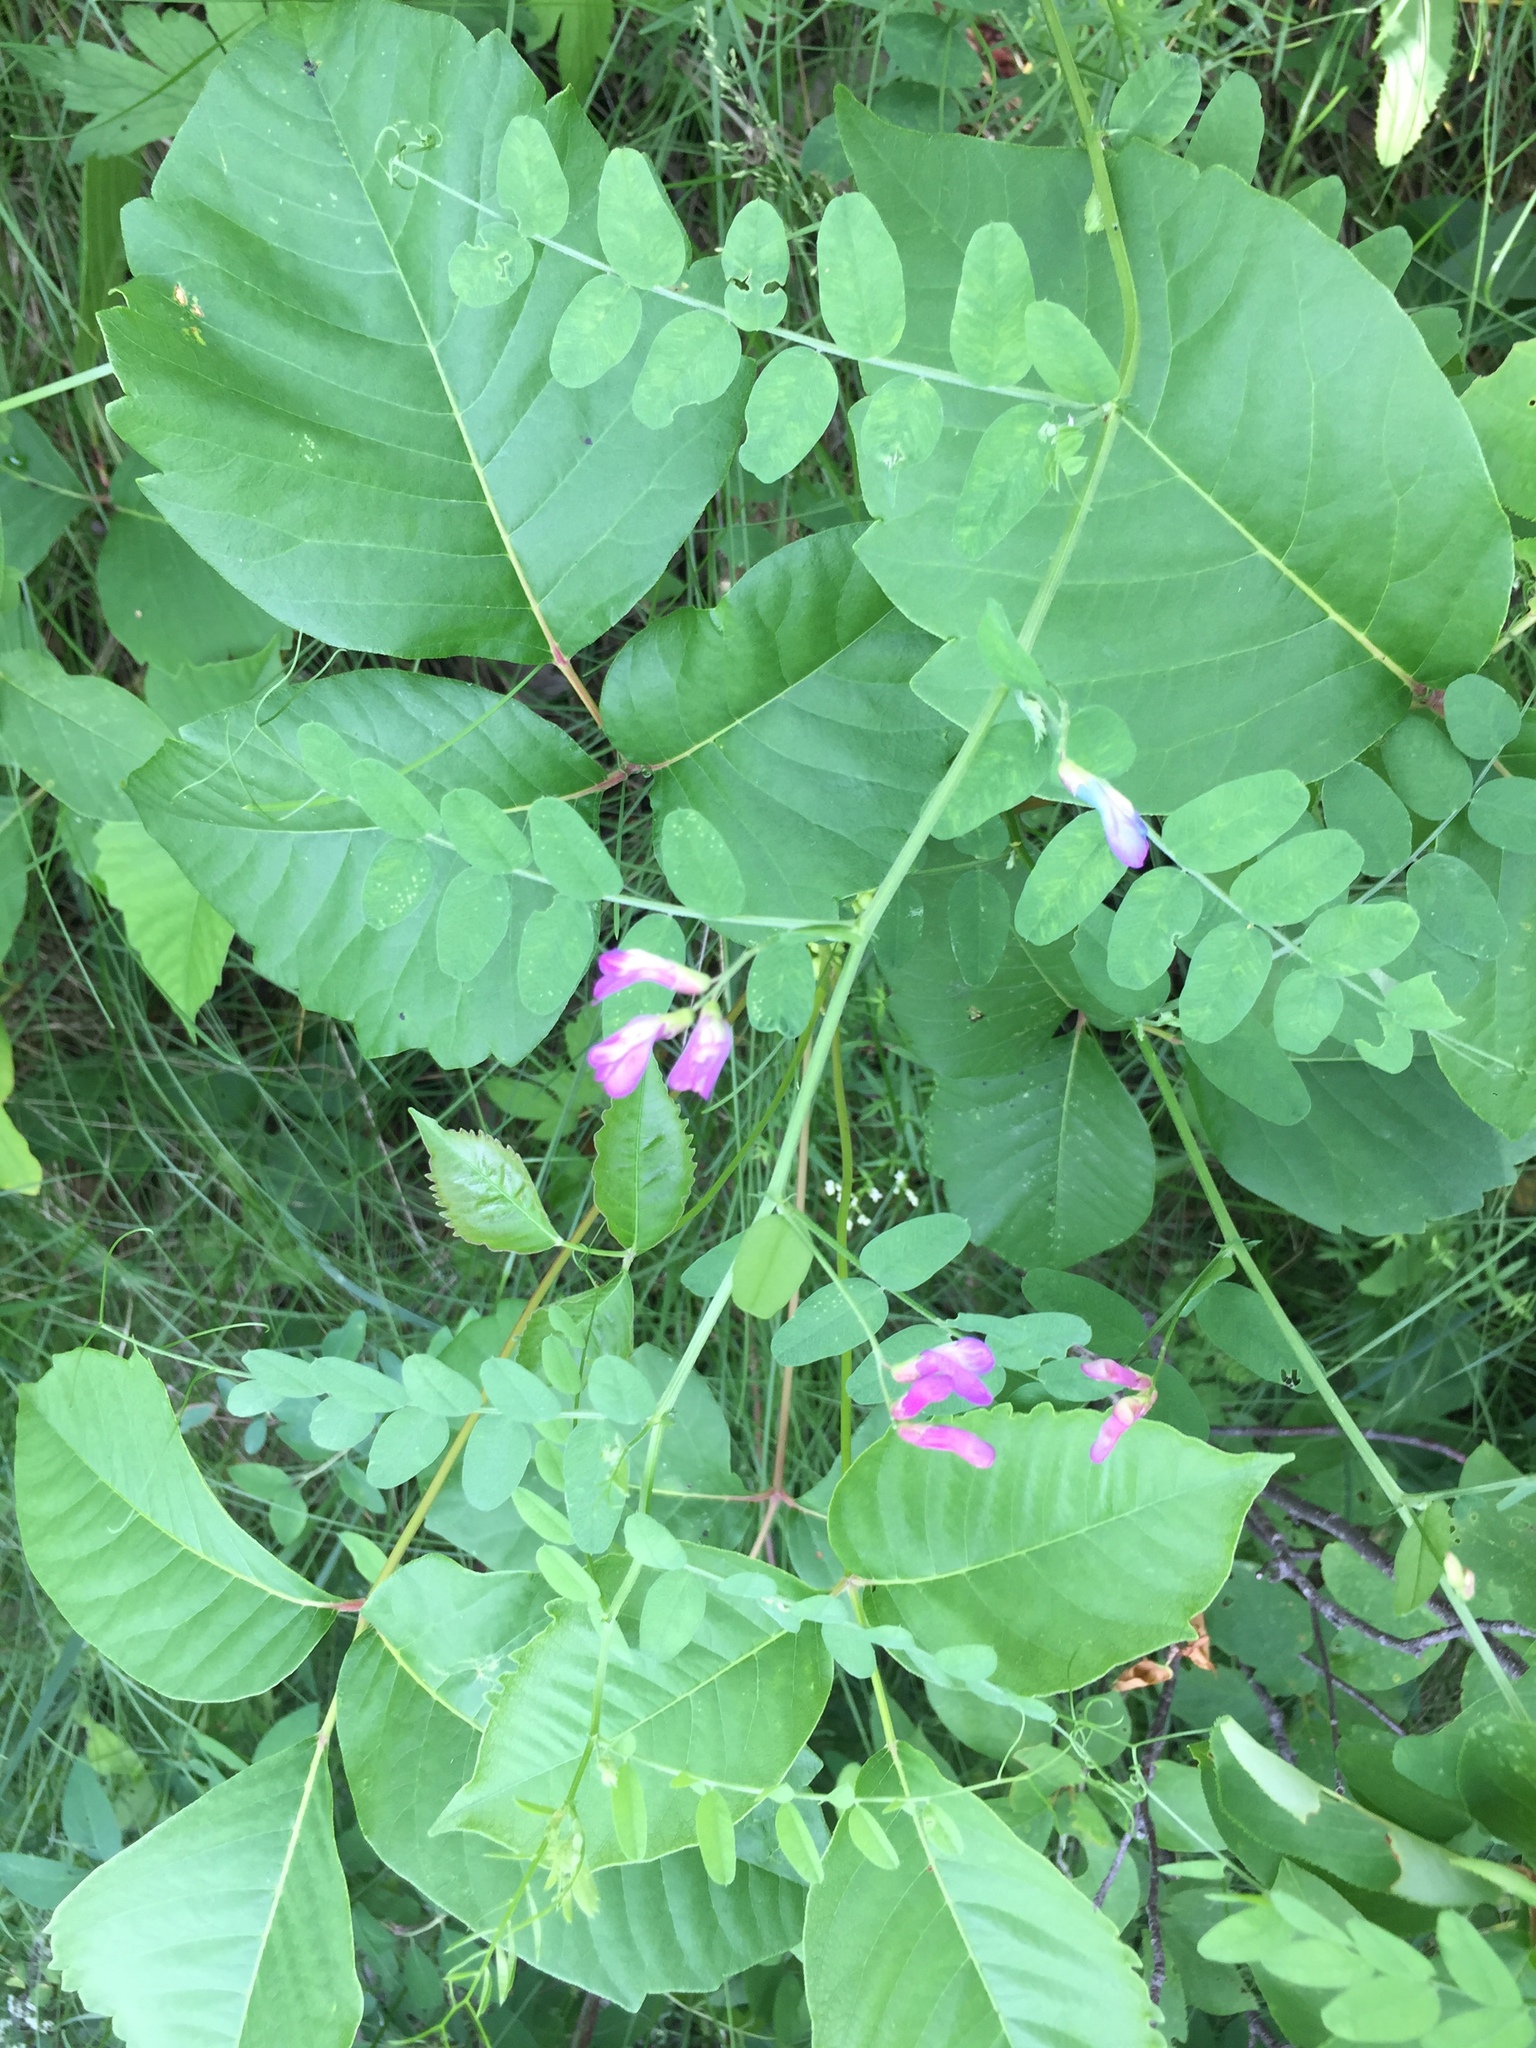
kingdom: Plantae
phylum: Tracheophyta
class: Magnoliopsida
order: Fabales
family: Fabaceae
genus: Vicia
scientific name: Vicia americana
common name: American vetch
